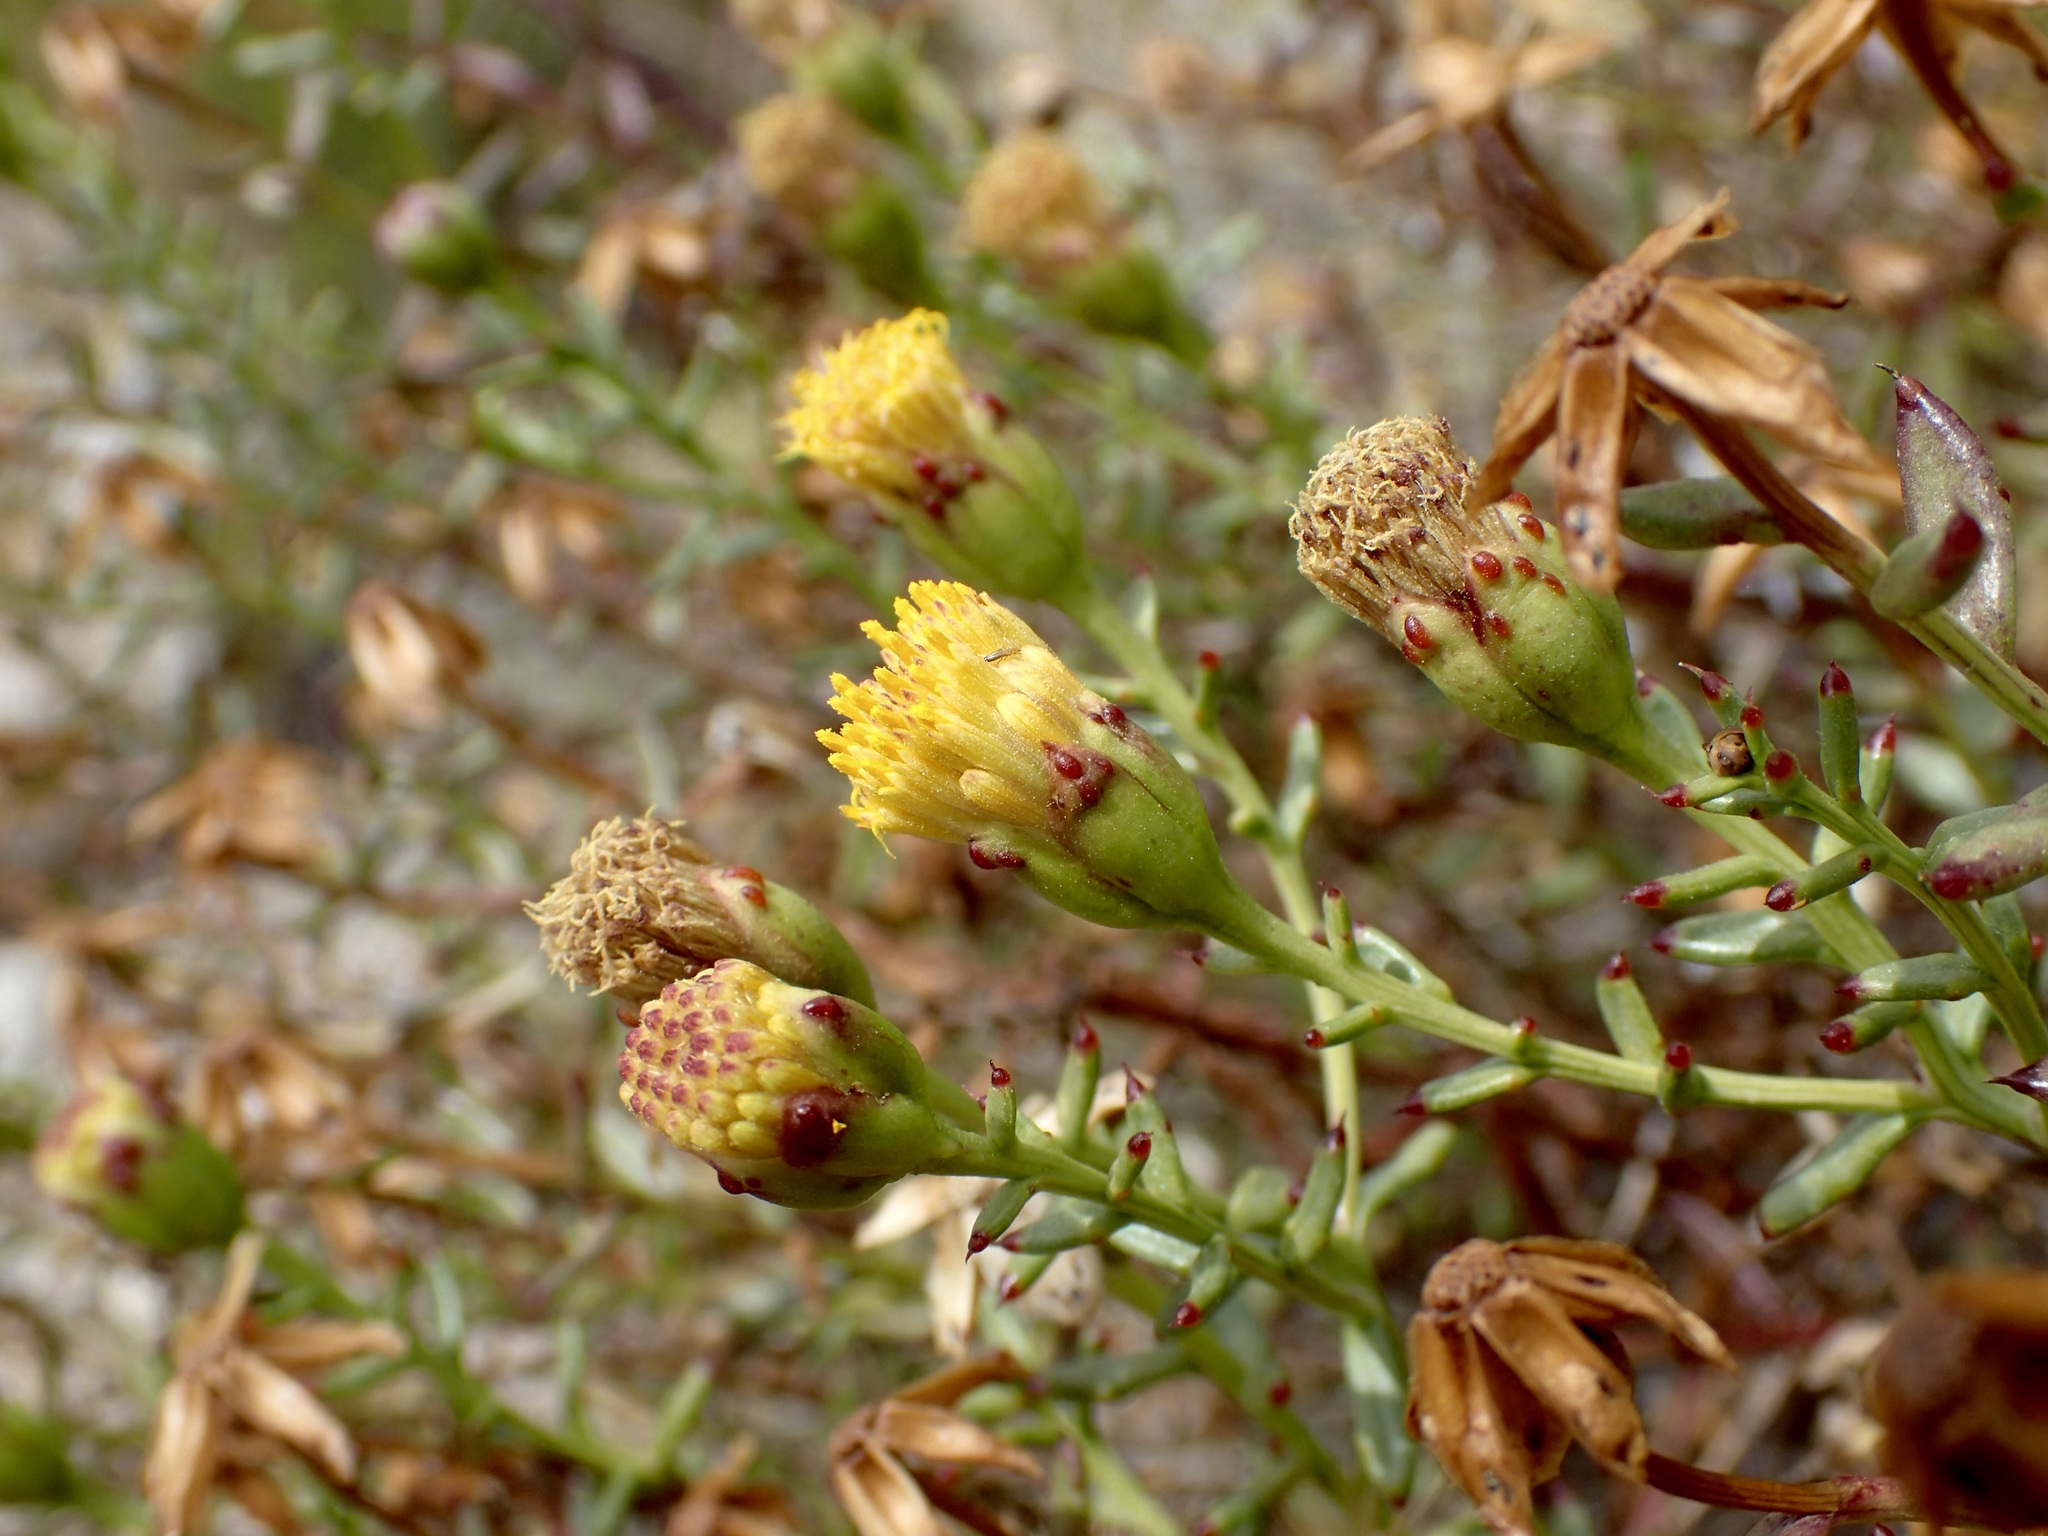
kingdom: Plantae
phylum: Tracheophyta
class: Magnoliopsida
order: Asterales
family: Asteraceae
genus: Bajacalia
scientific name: Bajacalia crassifolia
